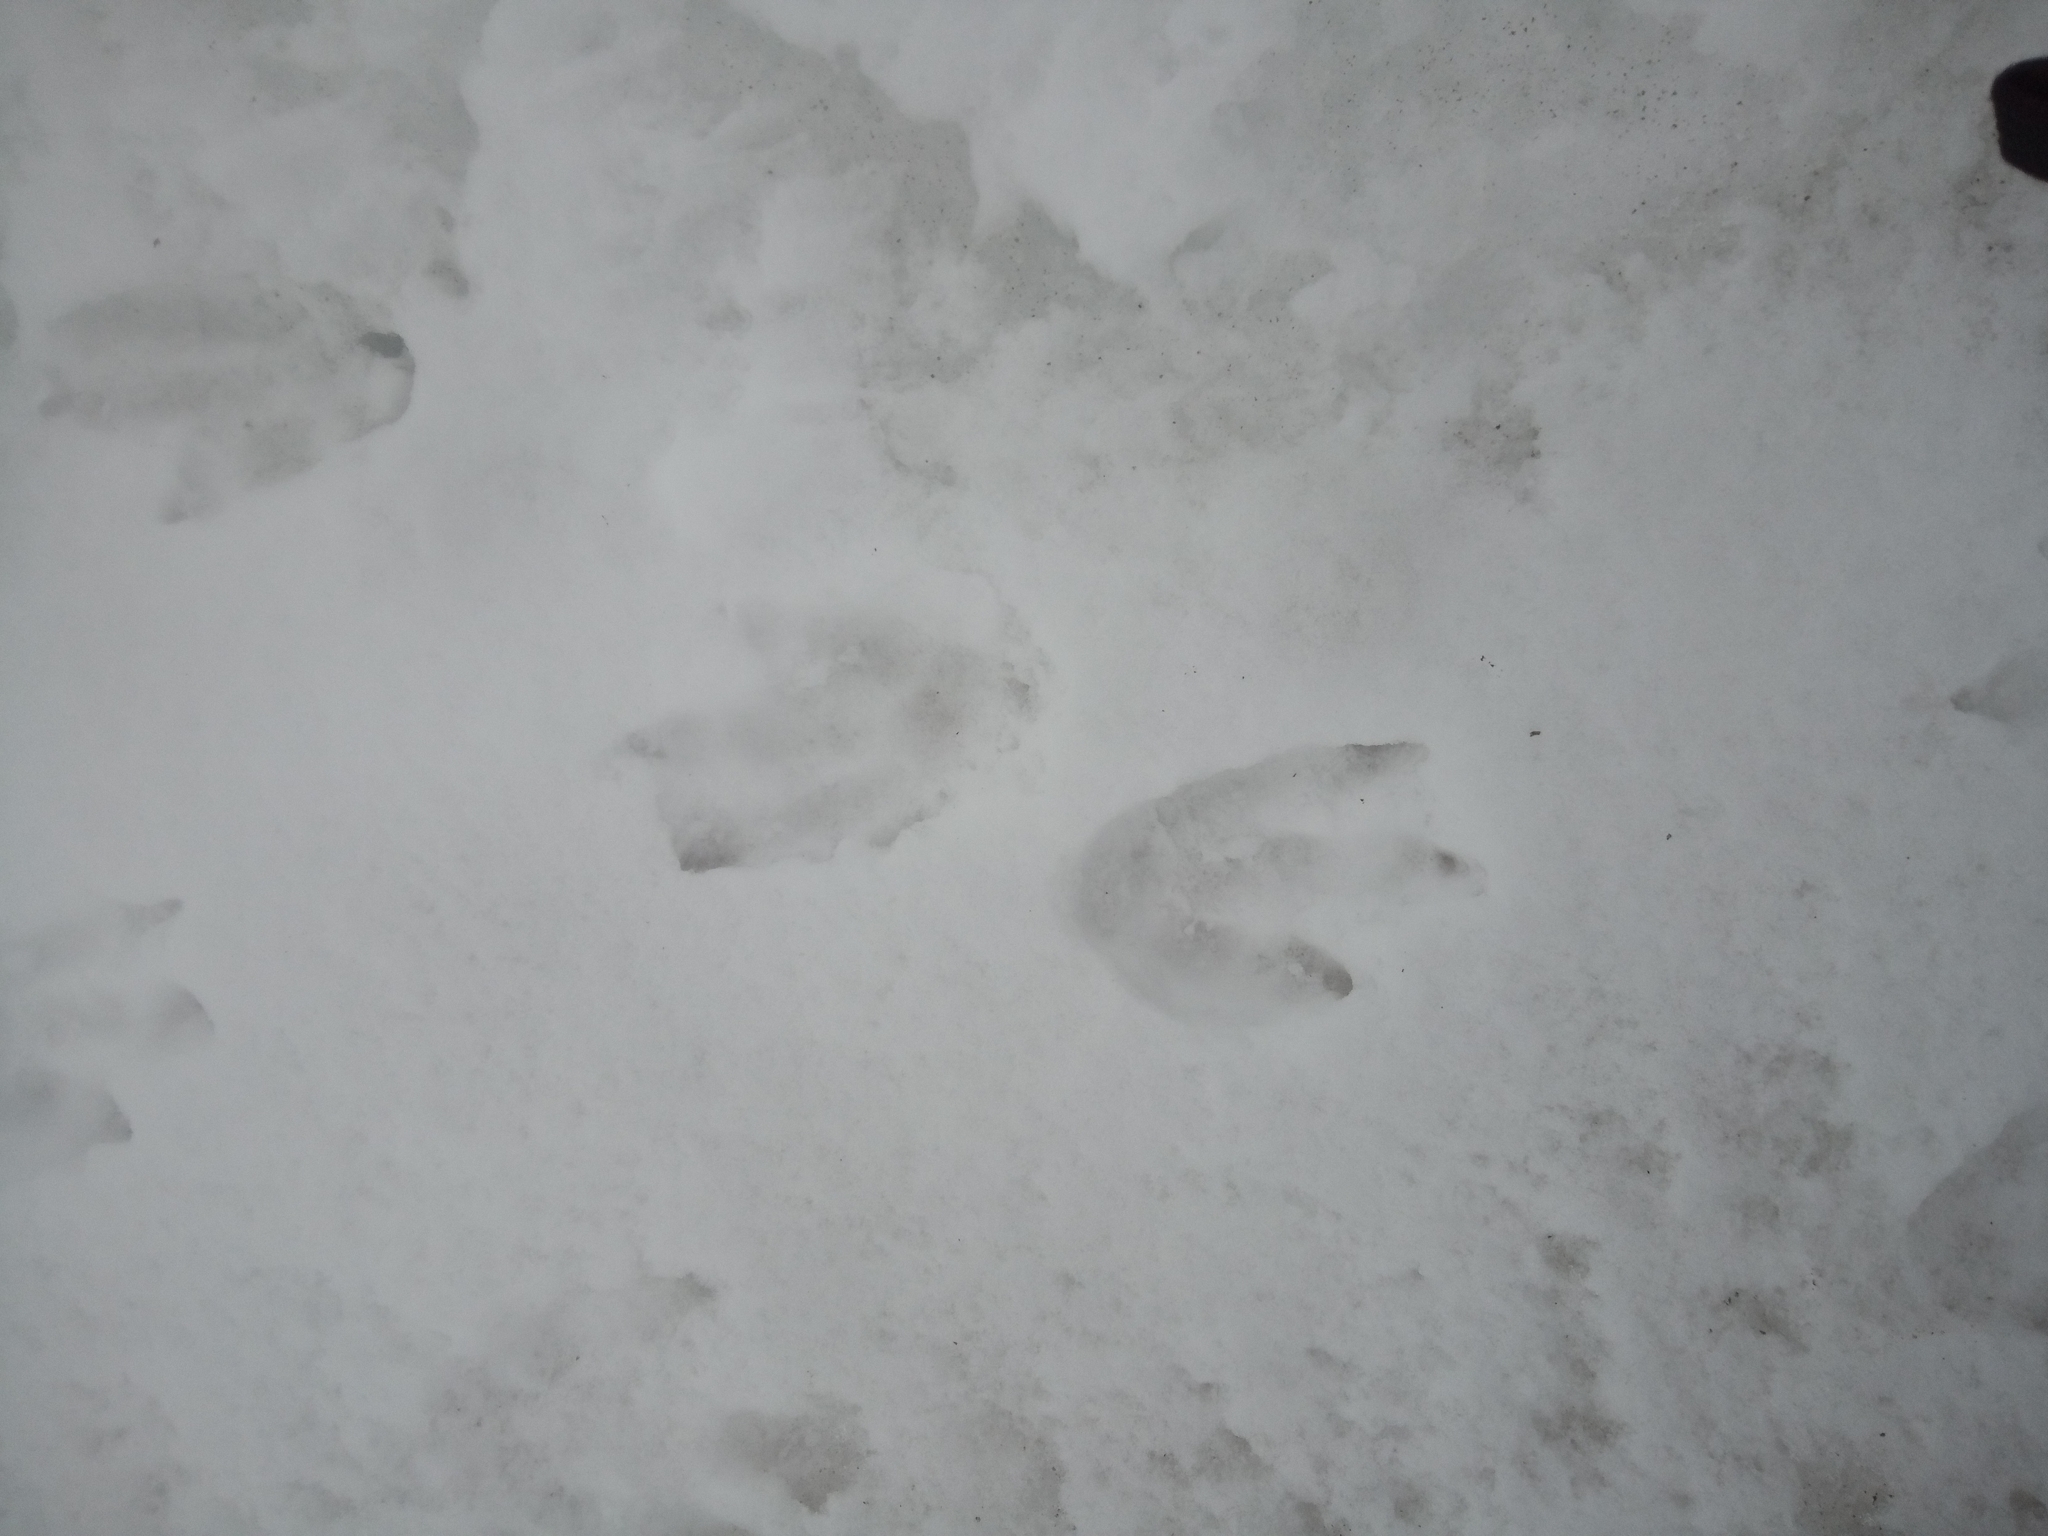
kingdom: Animalia
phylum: Chordata
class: Aves
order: Sphenisciformes
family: Spheniscidae
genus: Pygoscelis
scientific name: Pygoscelis papua
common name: Gentoo penguin
